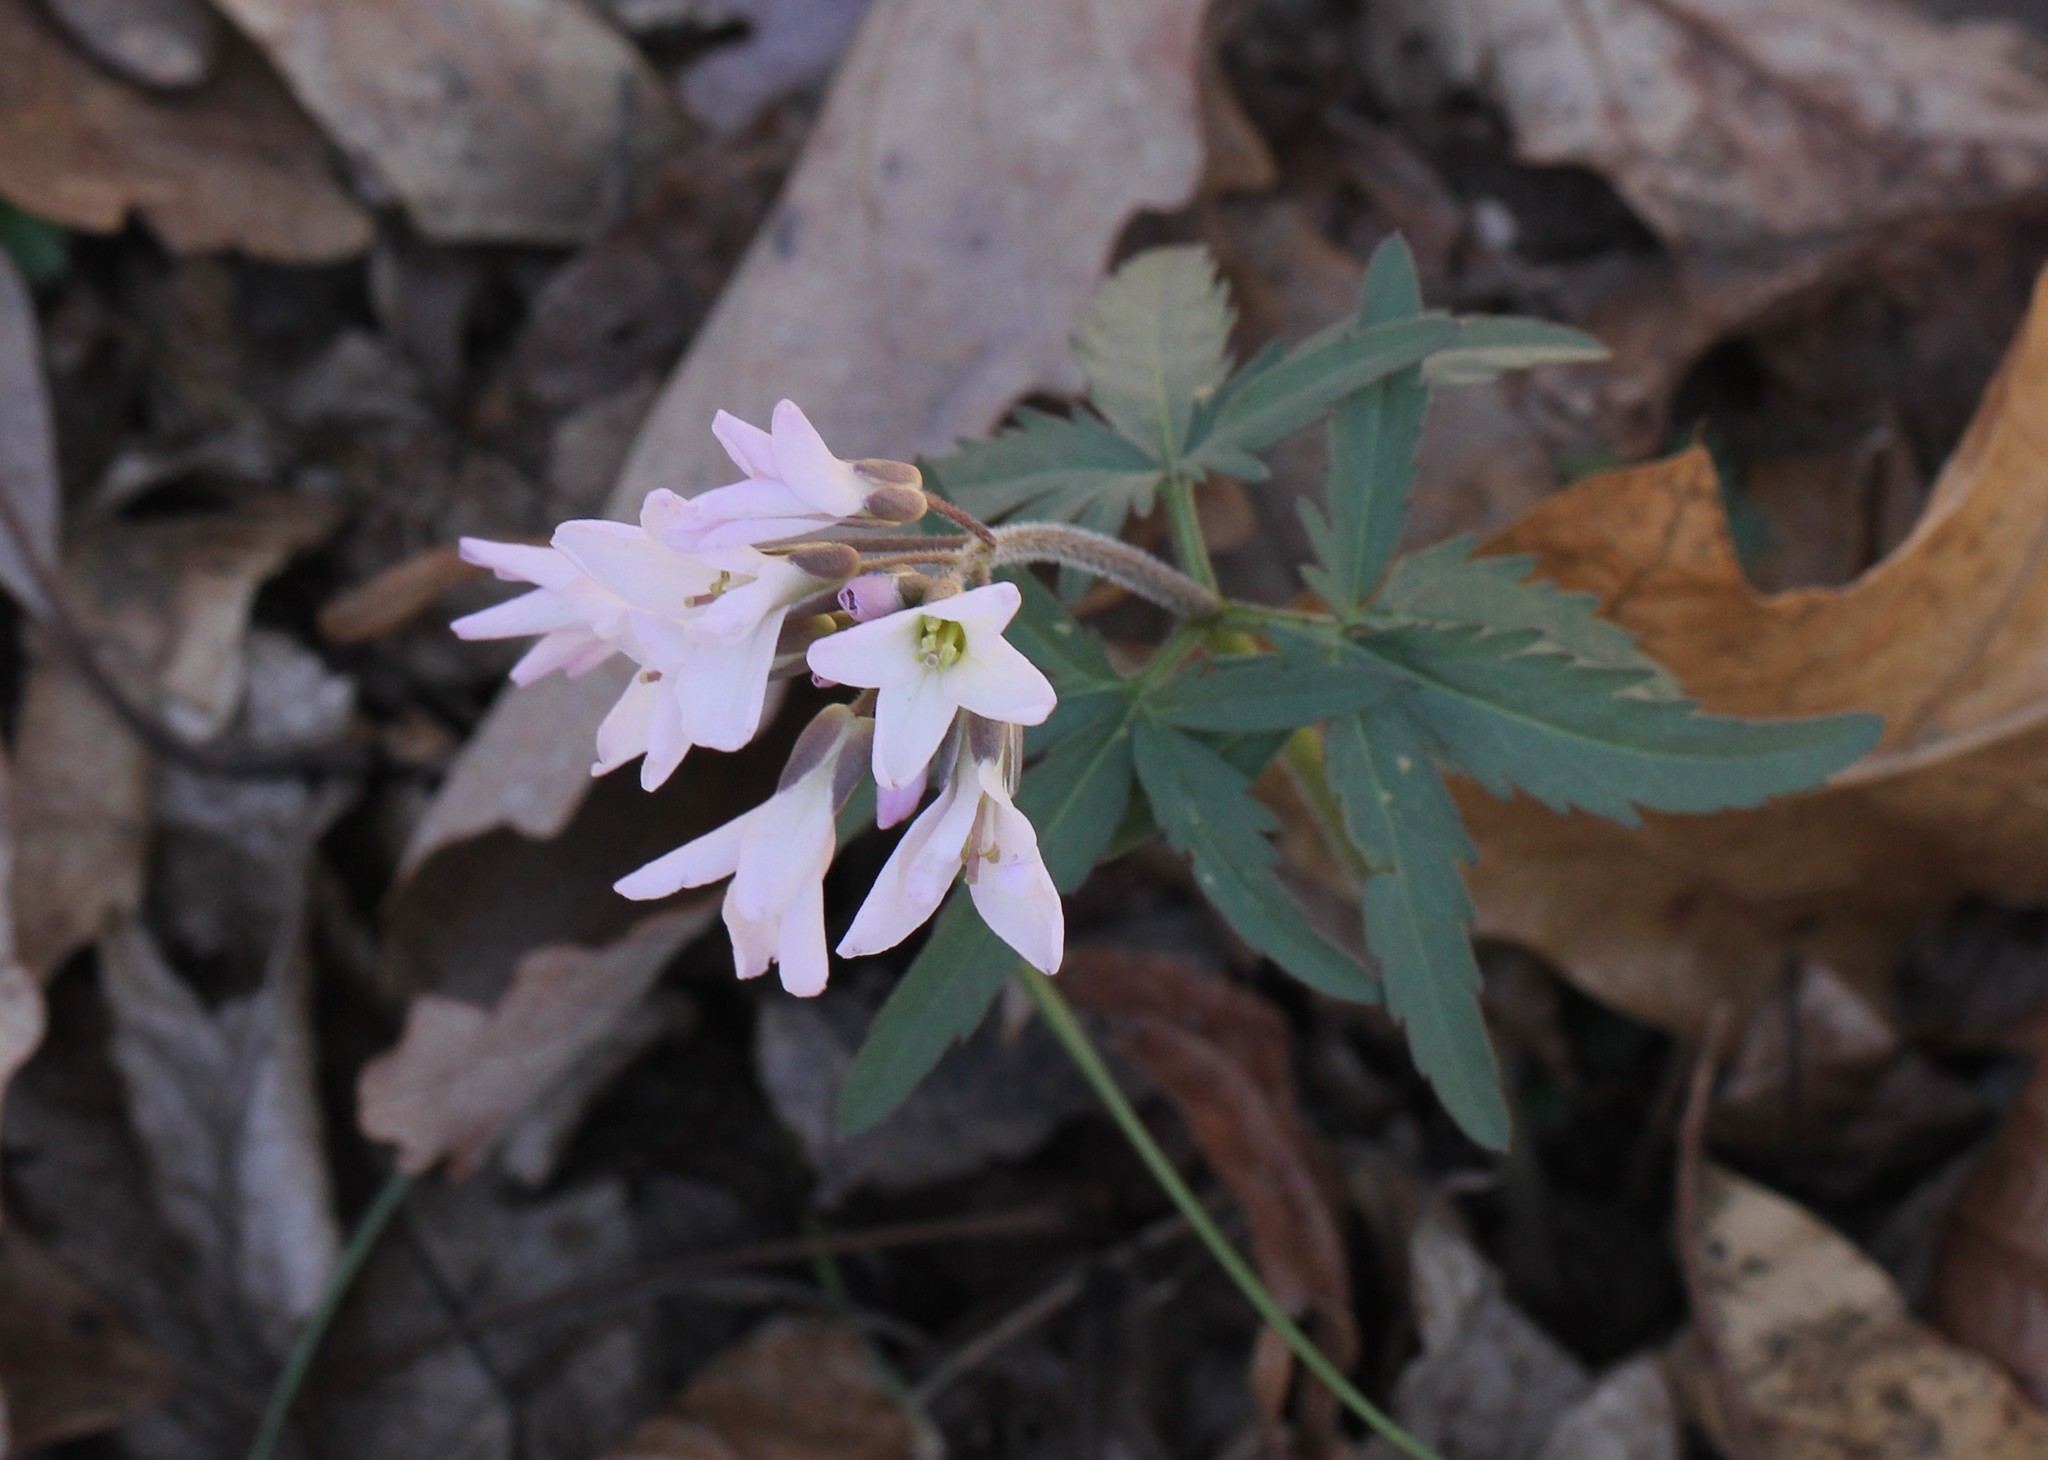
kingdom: Plantae
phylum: Tracheophyta
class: Magnoliopsida
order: Brassicales
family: Brassicaceae
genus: Cardamine
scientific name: Cardamine concatenata
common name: Cut-leaf toothcup
